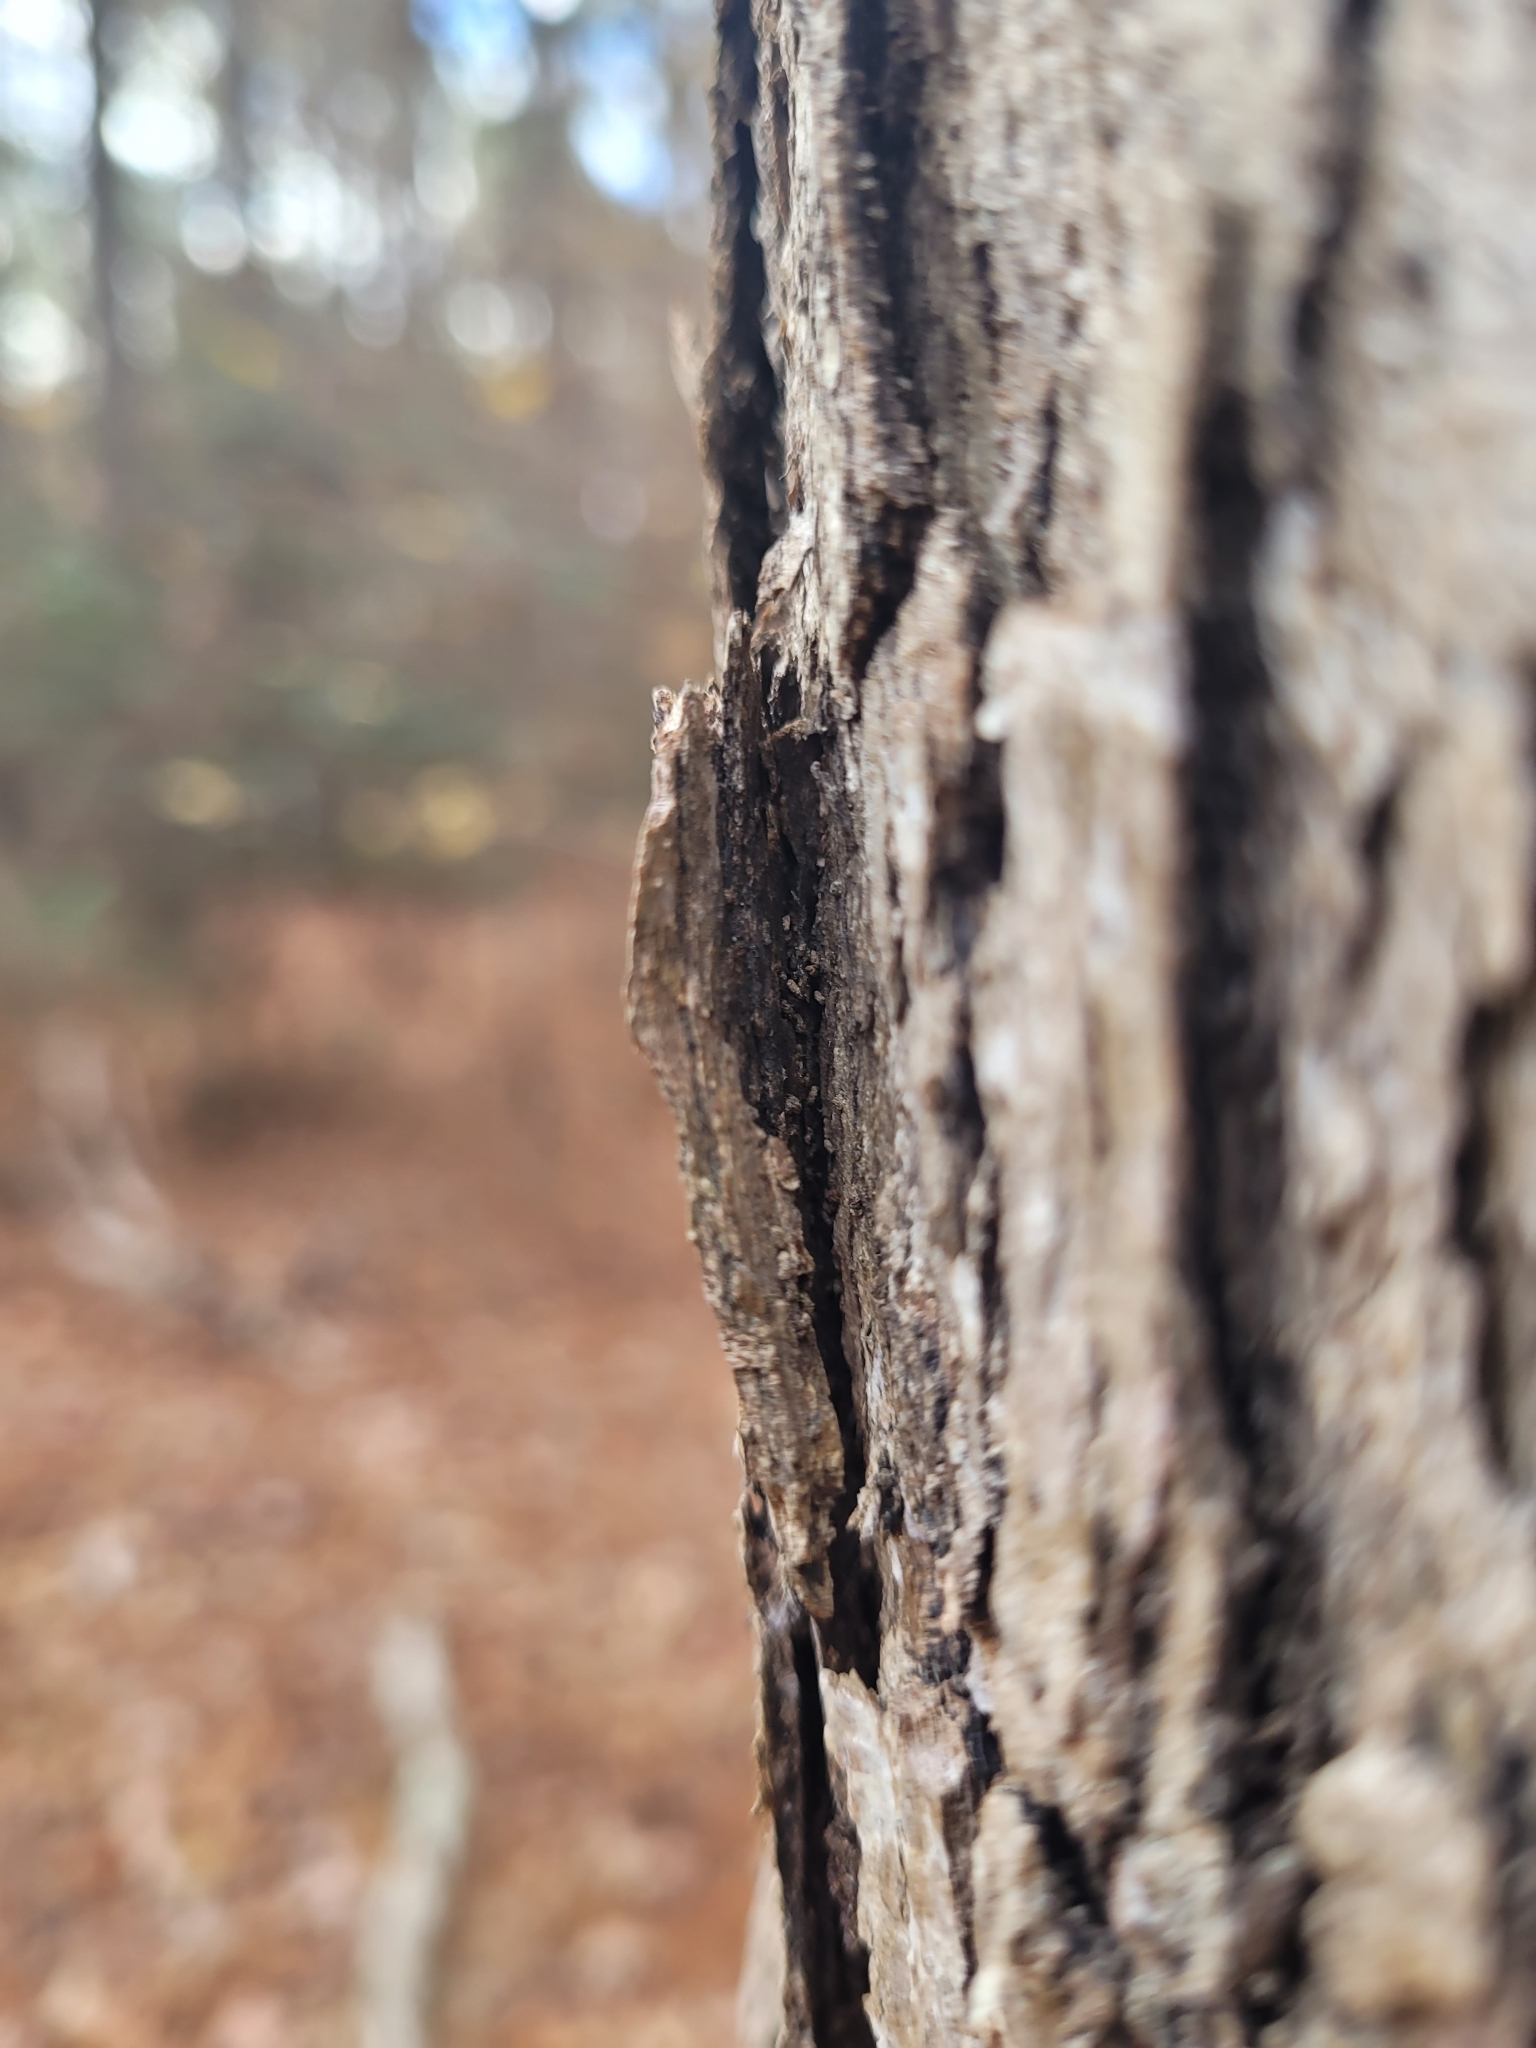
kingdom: Plantae
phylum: Tracheophyta
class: Magnoliopsida
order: Fagales
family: Juglandaceae
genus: Carya
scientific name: Carya ovata
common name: Shagbark hickory
